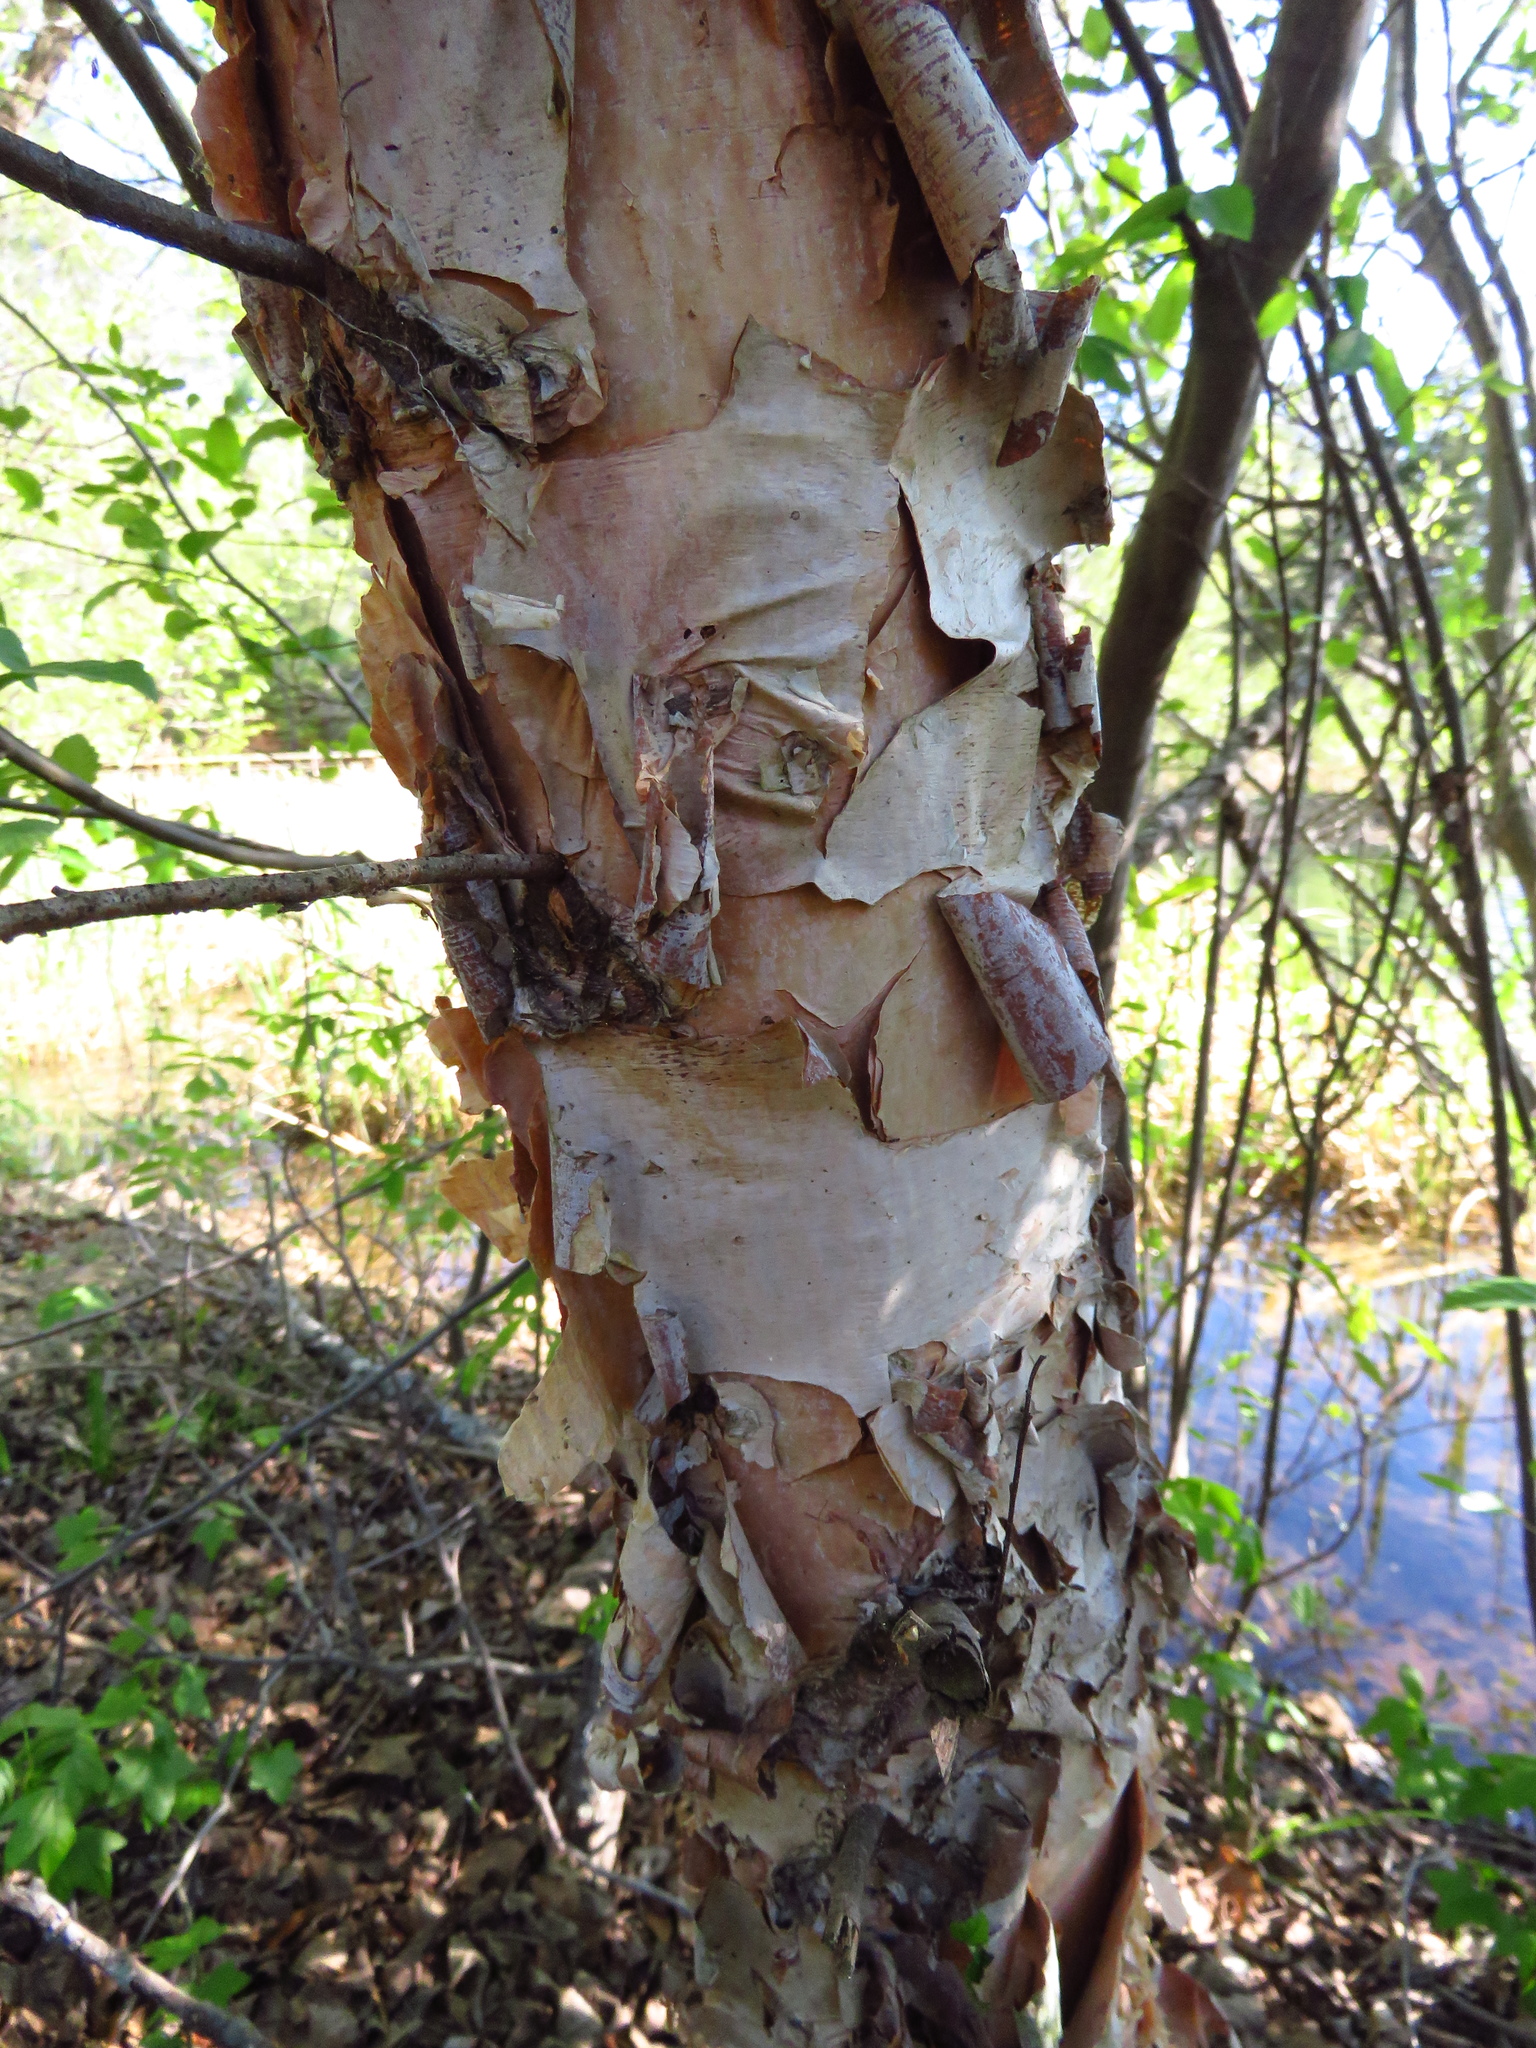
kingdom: Plantae
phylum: Tracheophyta
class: Magnoliopsida
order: Fagales
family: Betulaceae
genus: Betula
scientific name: Betula nigra
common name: Black birch
